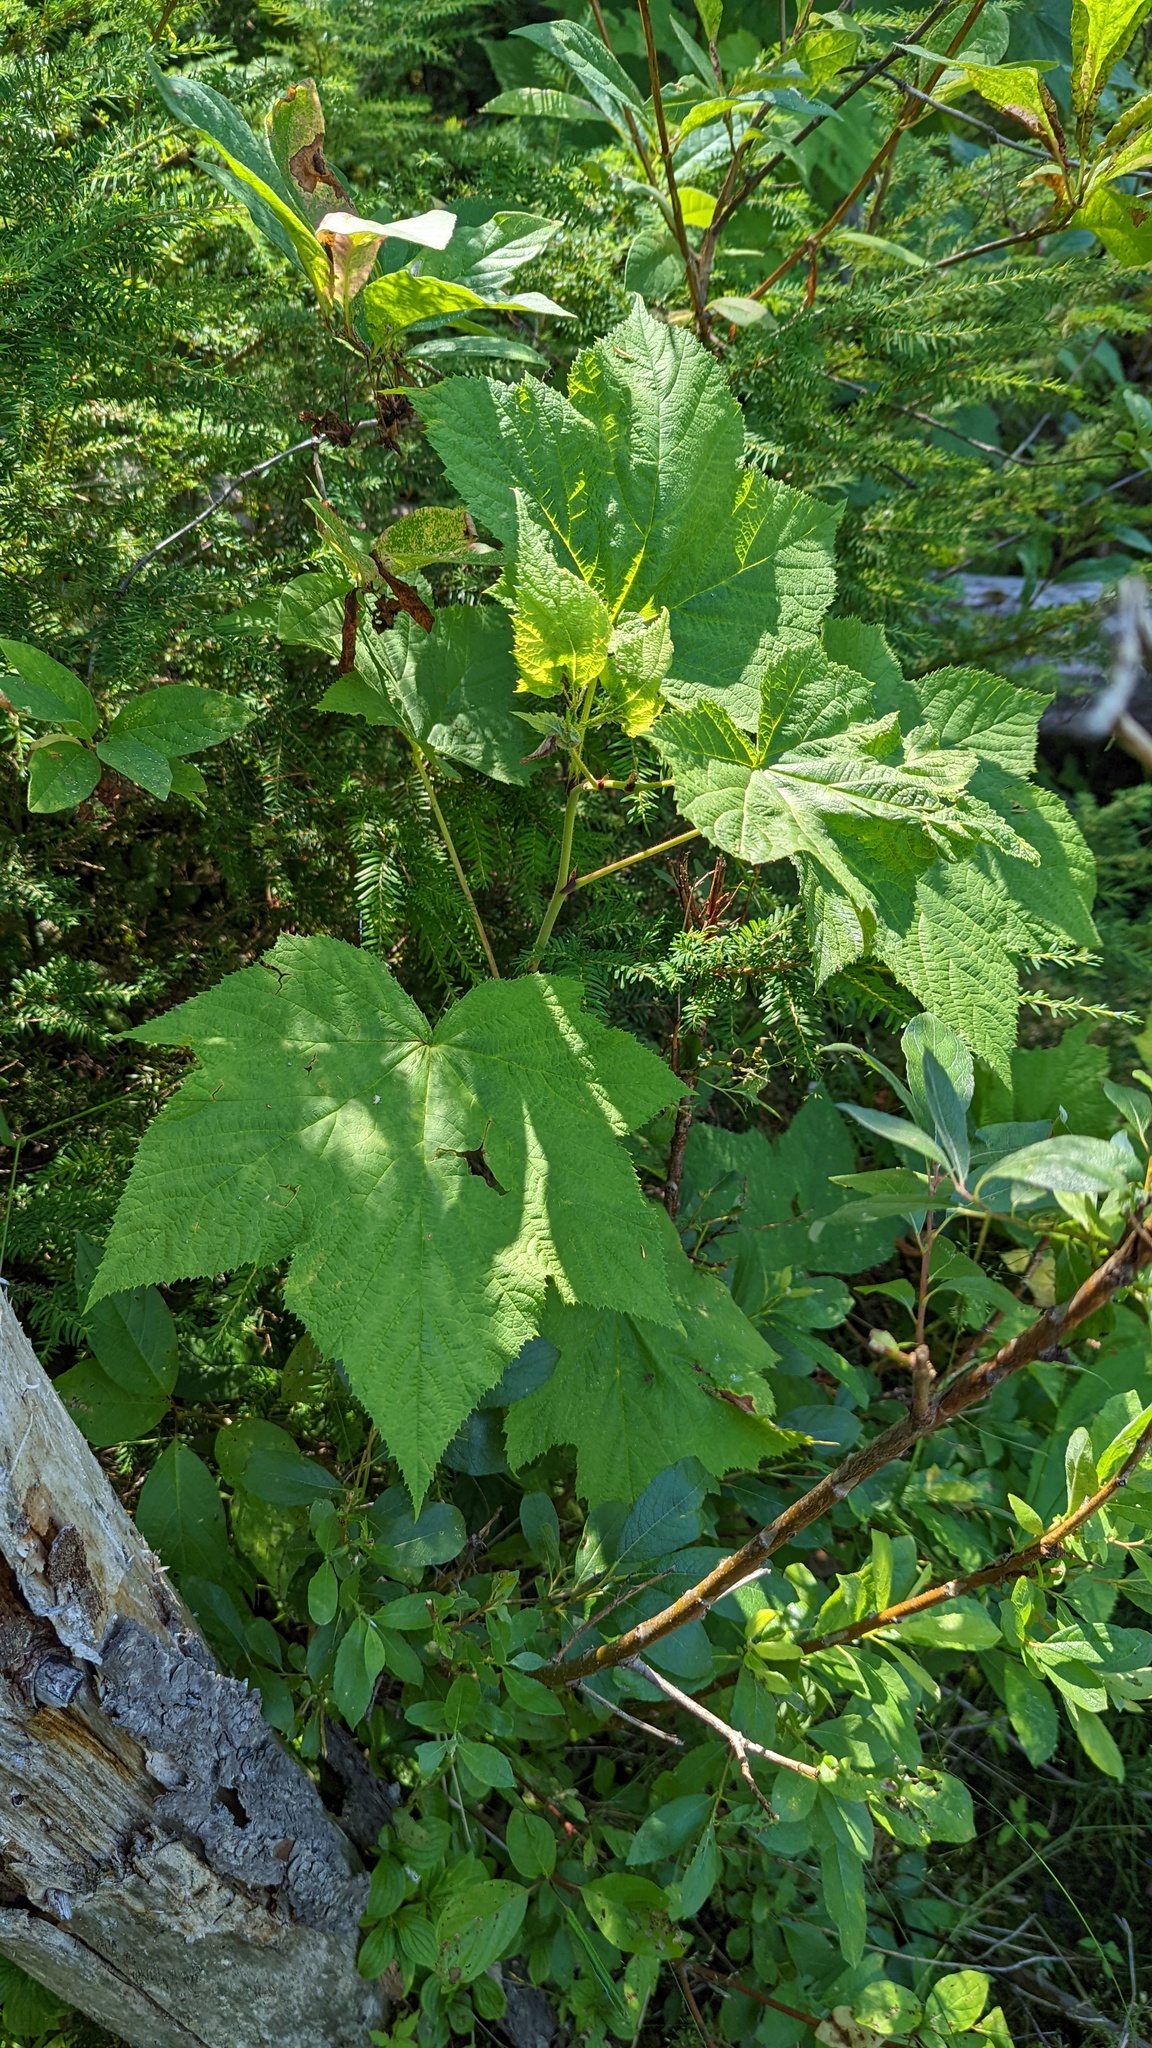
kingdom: Plantae
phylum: Tracheophyta
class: Magnoliopsida
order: Rosales
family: Rosaceae
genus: Rubus
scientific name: Rubus parviflorus
